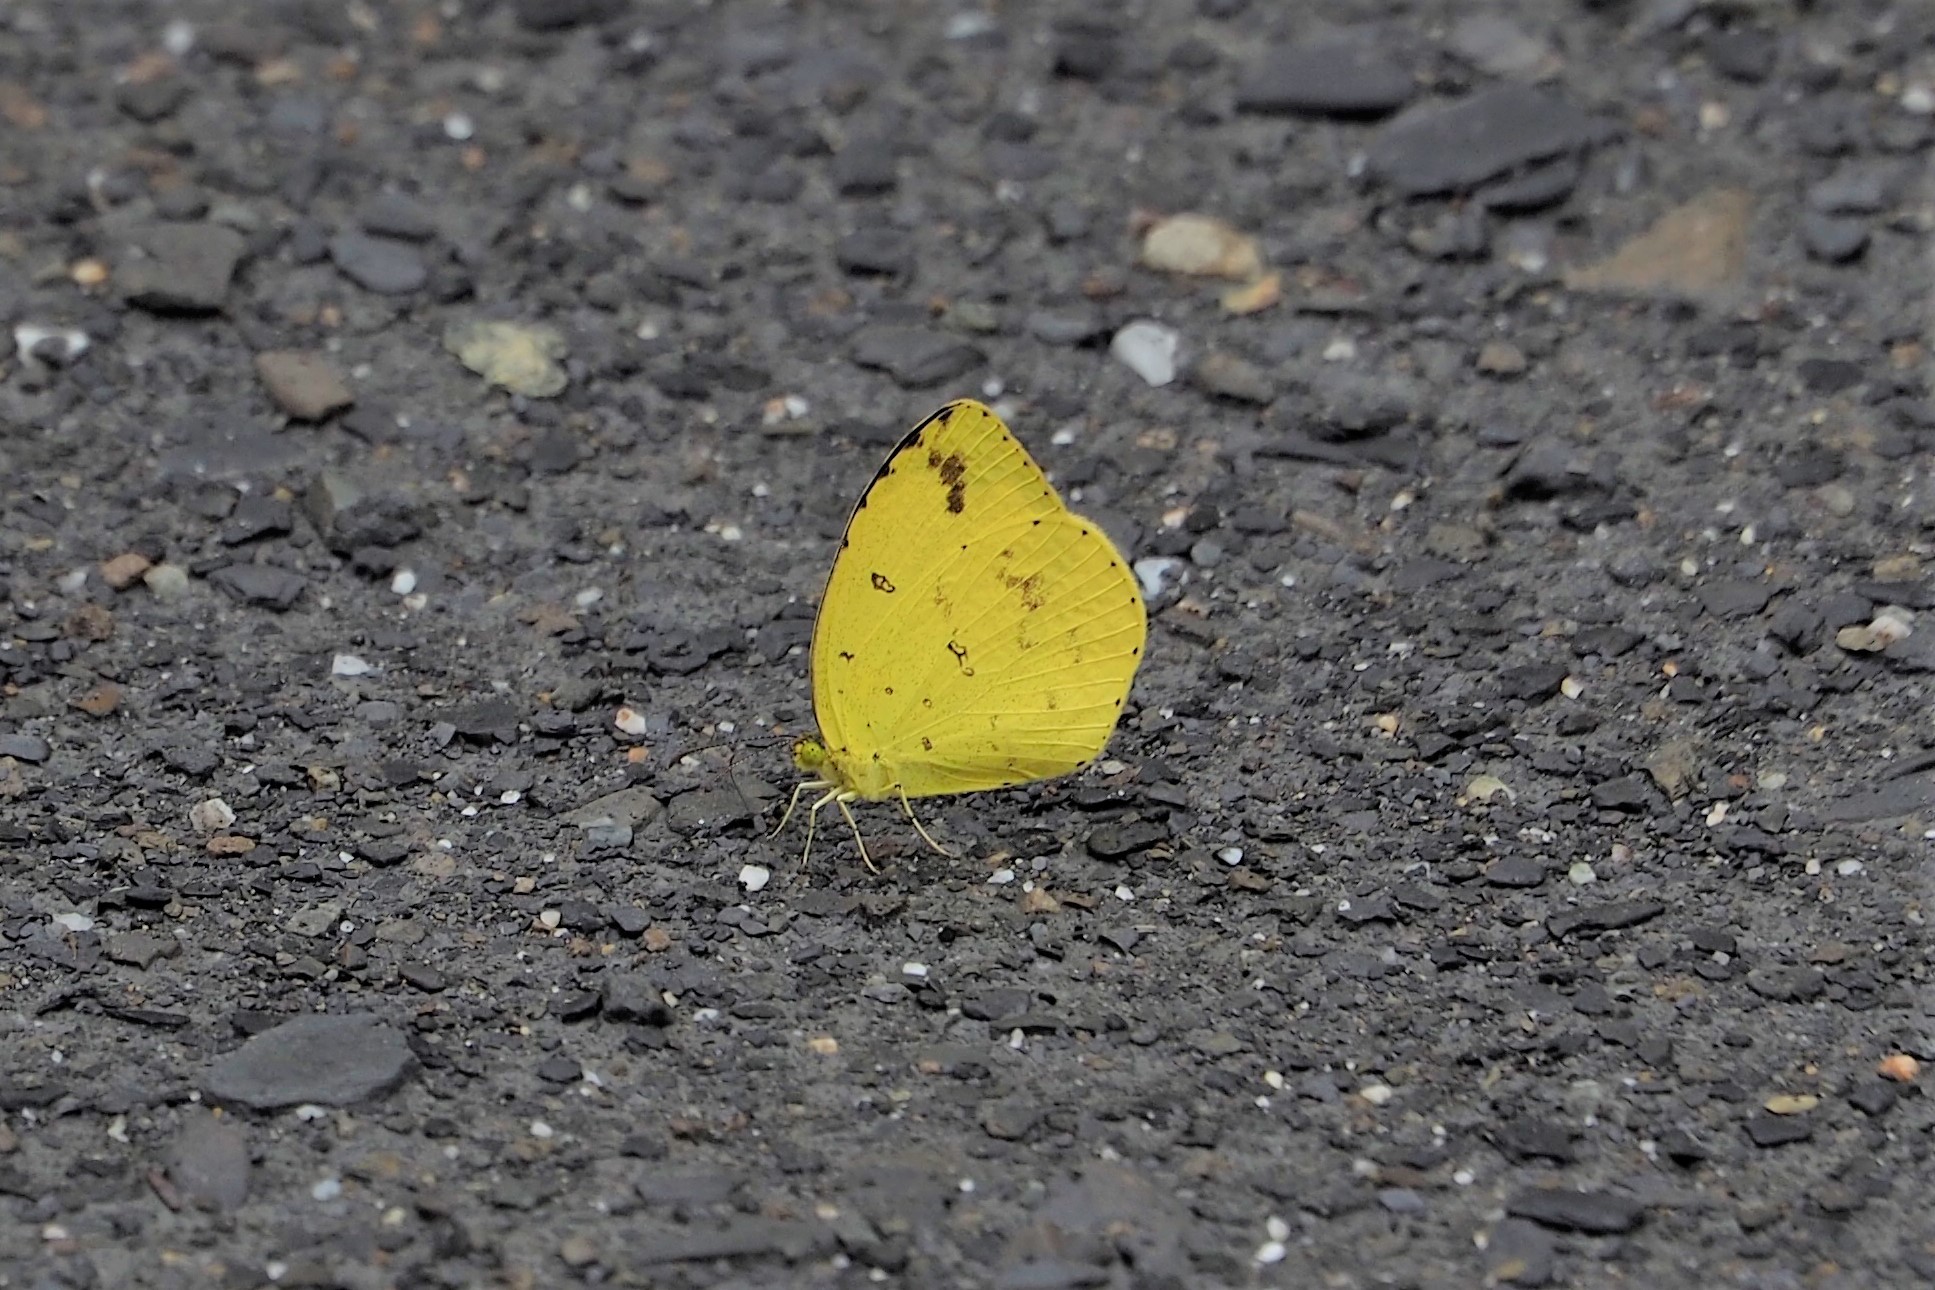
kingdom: Animalia
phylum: Arthropoda
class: Insecta
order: Lepidoptera
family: Pieridae
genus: Eurema
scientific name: Eurema mandarina
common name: Japanese common grass yellow
